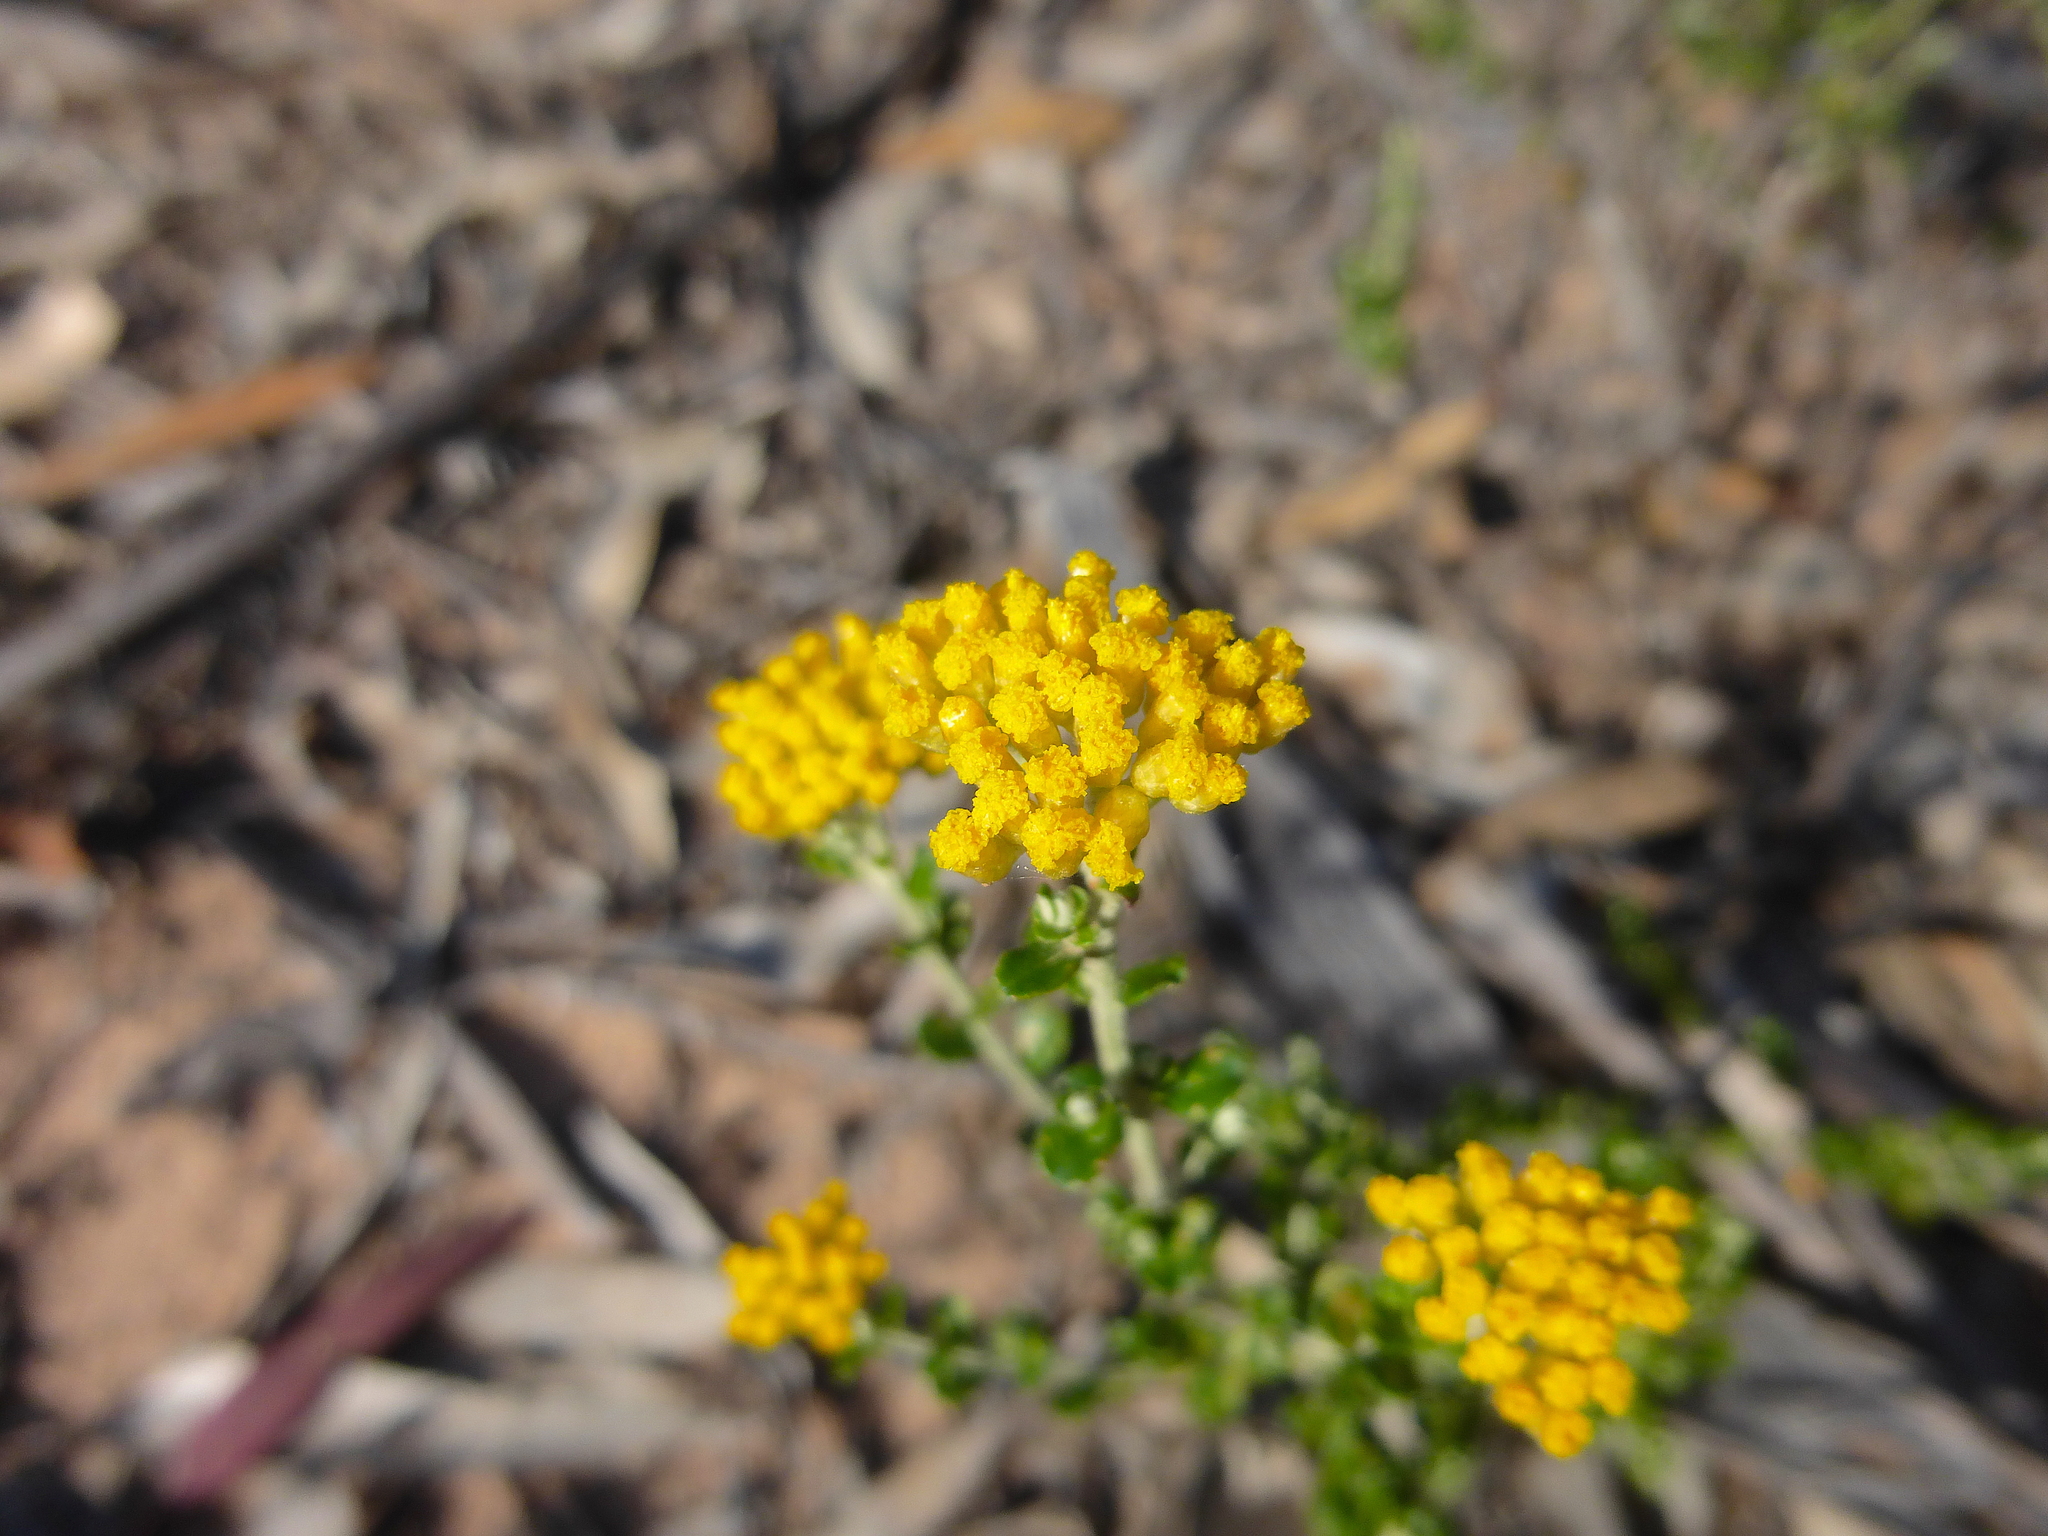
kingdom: Plantae
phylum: Tracheophyta
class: Magnoliopsida
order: Asterales
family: Asteraceae
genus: Ozothamnus
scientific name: Ozothamnus obcordatus
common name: Grey everlasting
